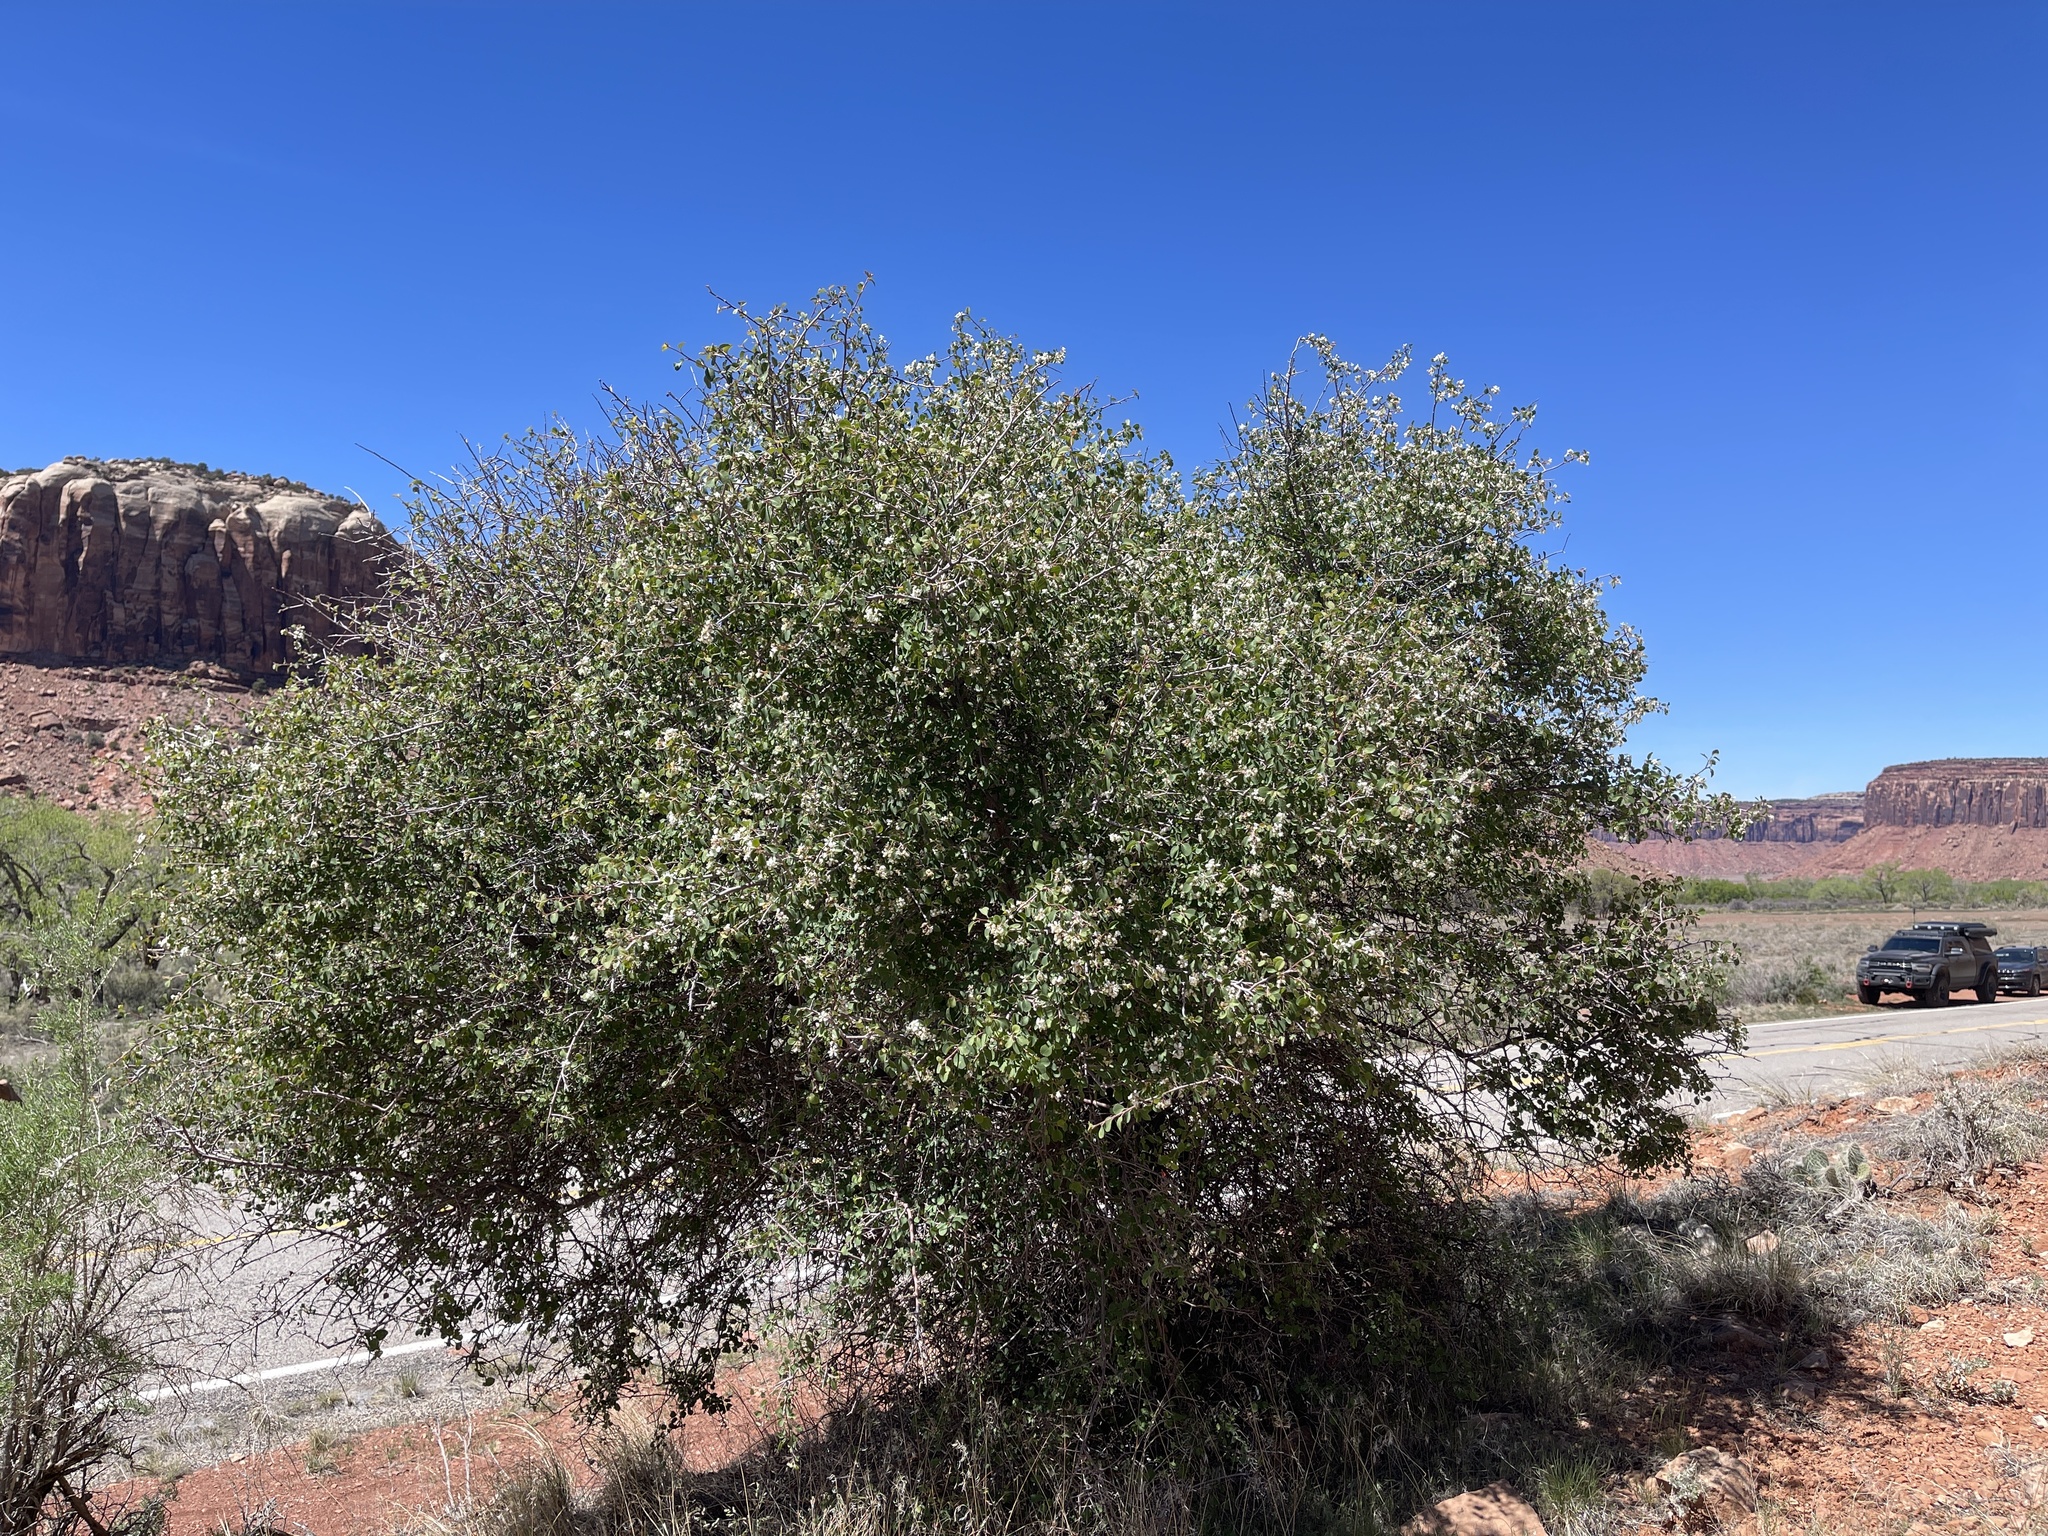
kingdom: Plantae
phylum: Tracheophyta
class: Magnoliopsida
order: Rosales
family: Rosaceae
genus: Amelanchier
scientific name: Amelanchier utahensis
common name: Utah serviceberry
